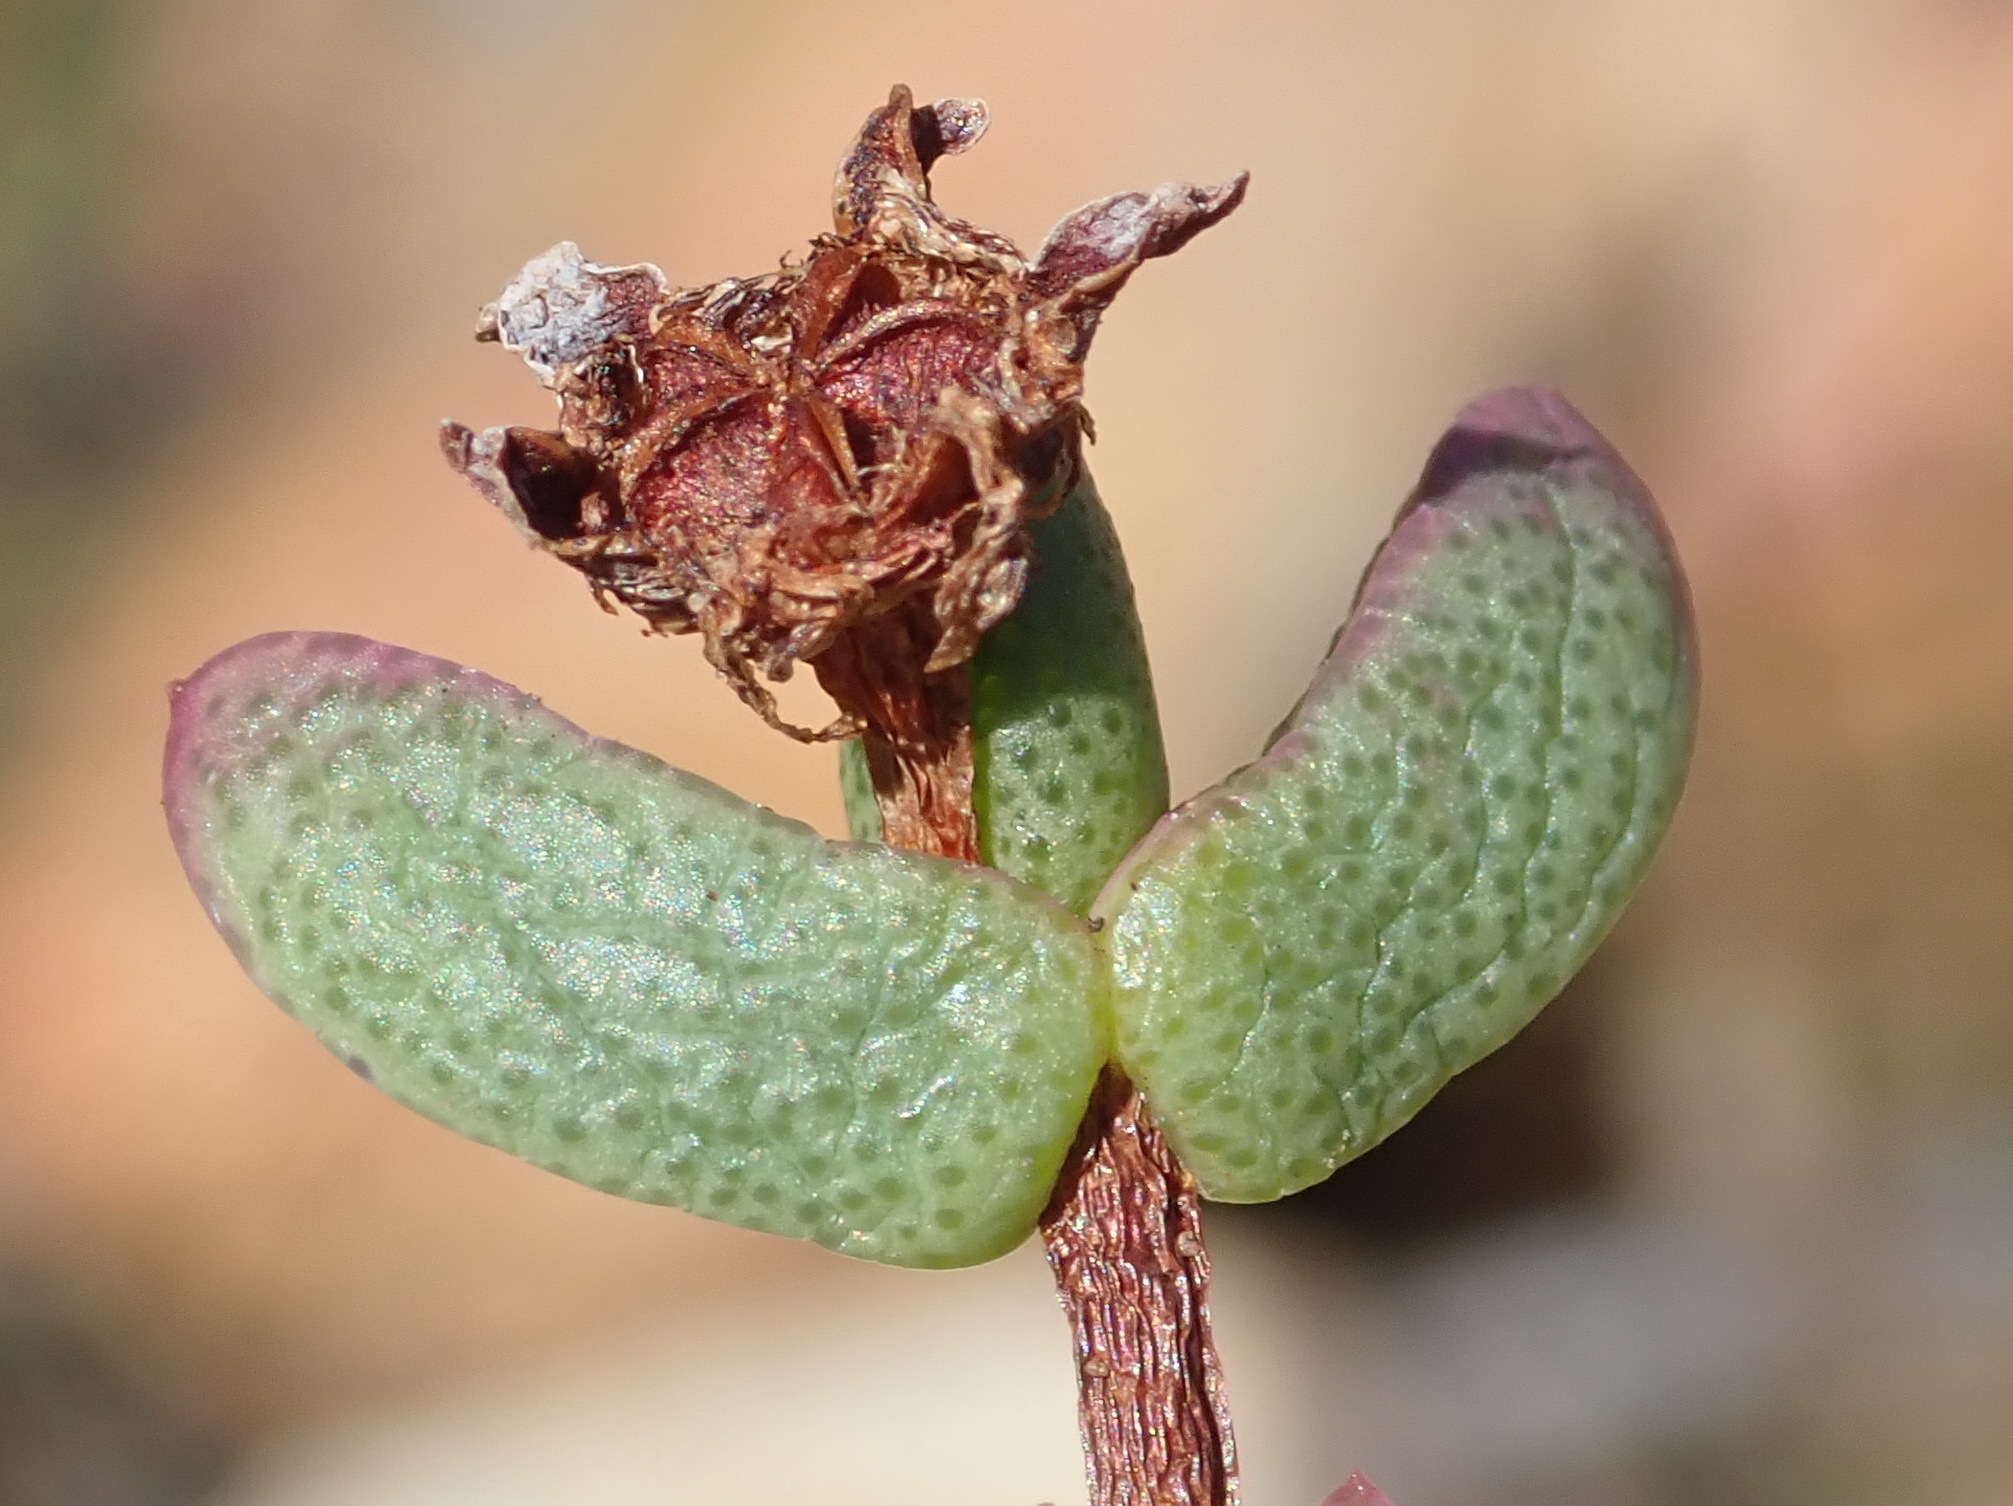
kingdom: Plantae
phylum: Tracheophyta
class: Magnoliopsida
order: Caryophyllales
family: Aizoaceae
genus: Ruschia
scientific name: Ruschia virgata
